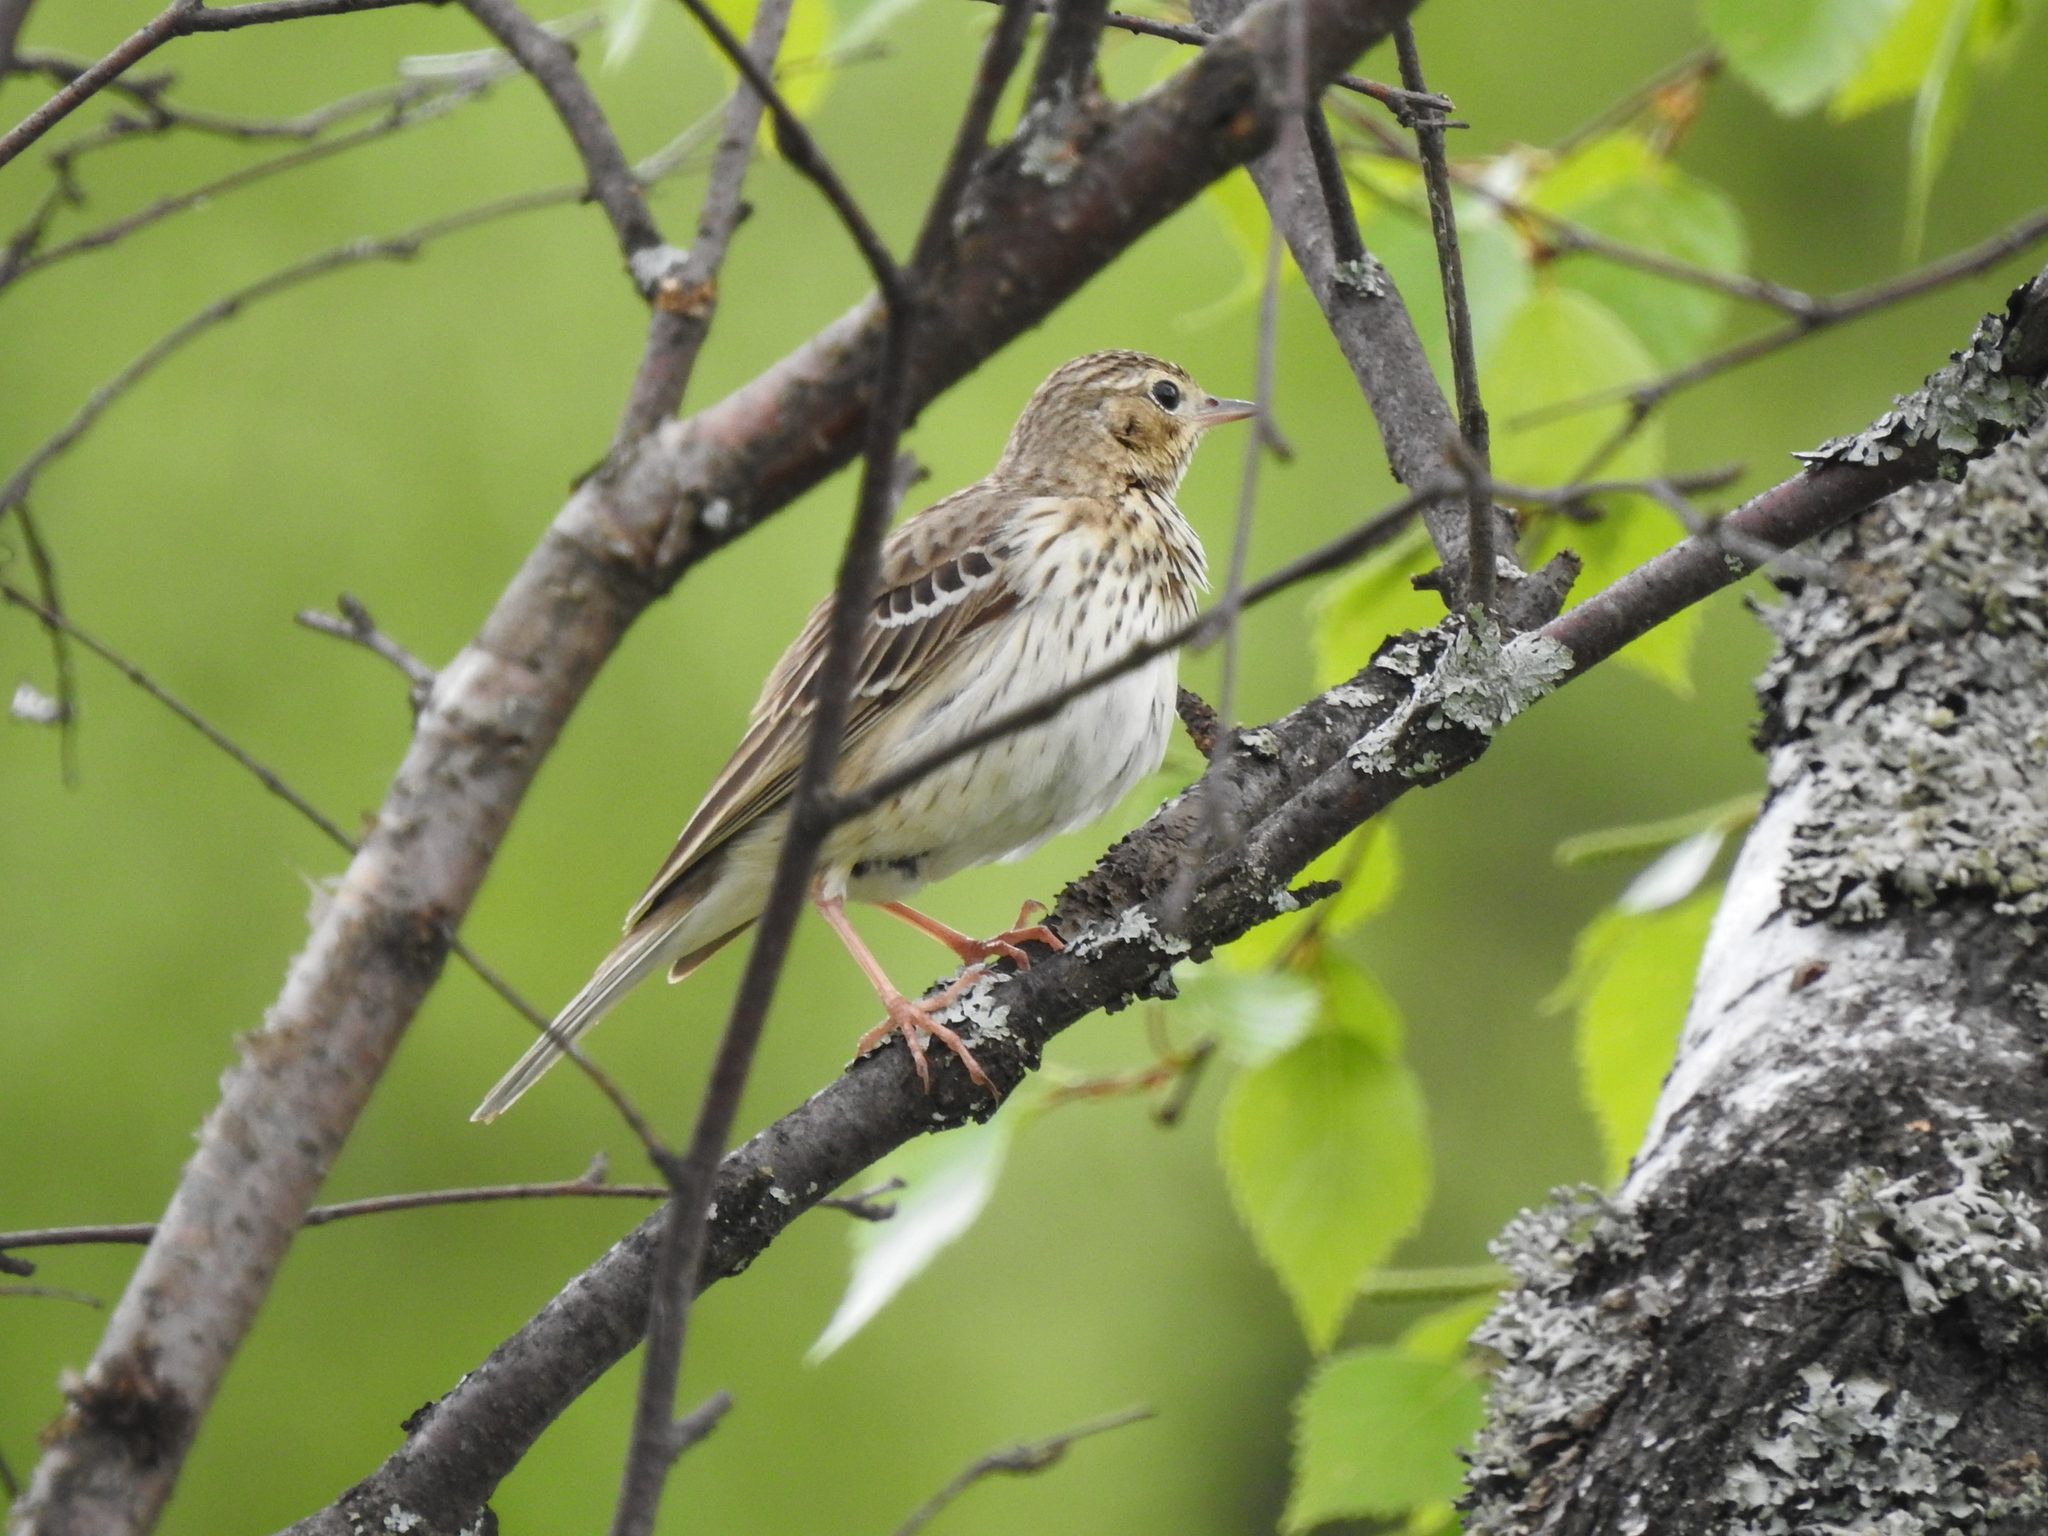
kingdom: Animalia
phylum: Chordata
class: Aves
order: Passeriformes
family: Motacillidae
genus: Anthus
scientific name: Anthus trivialis
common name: Tree pipit
